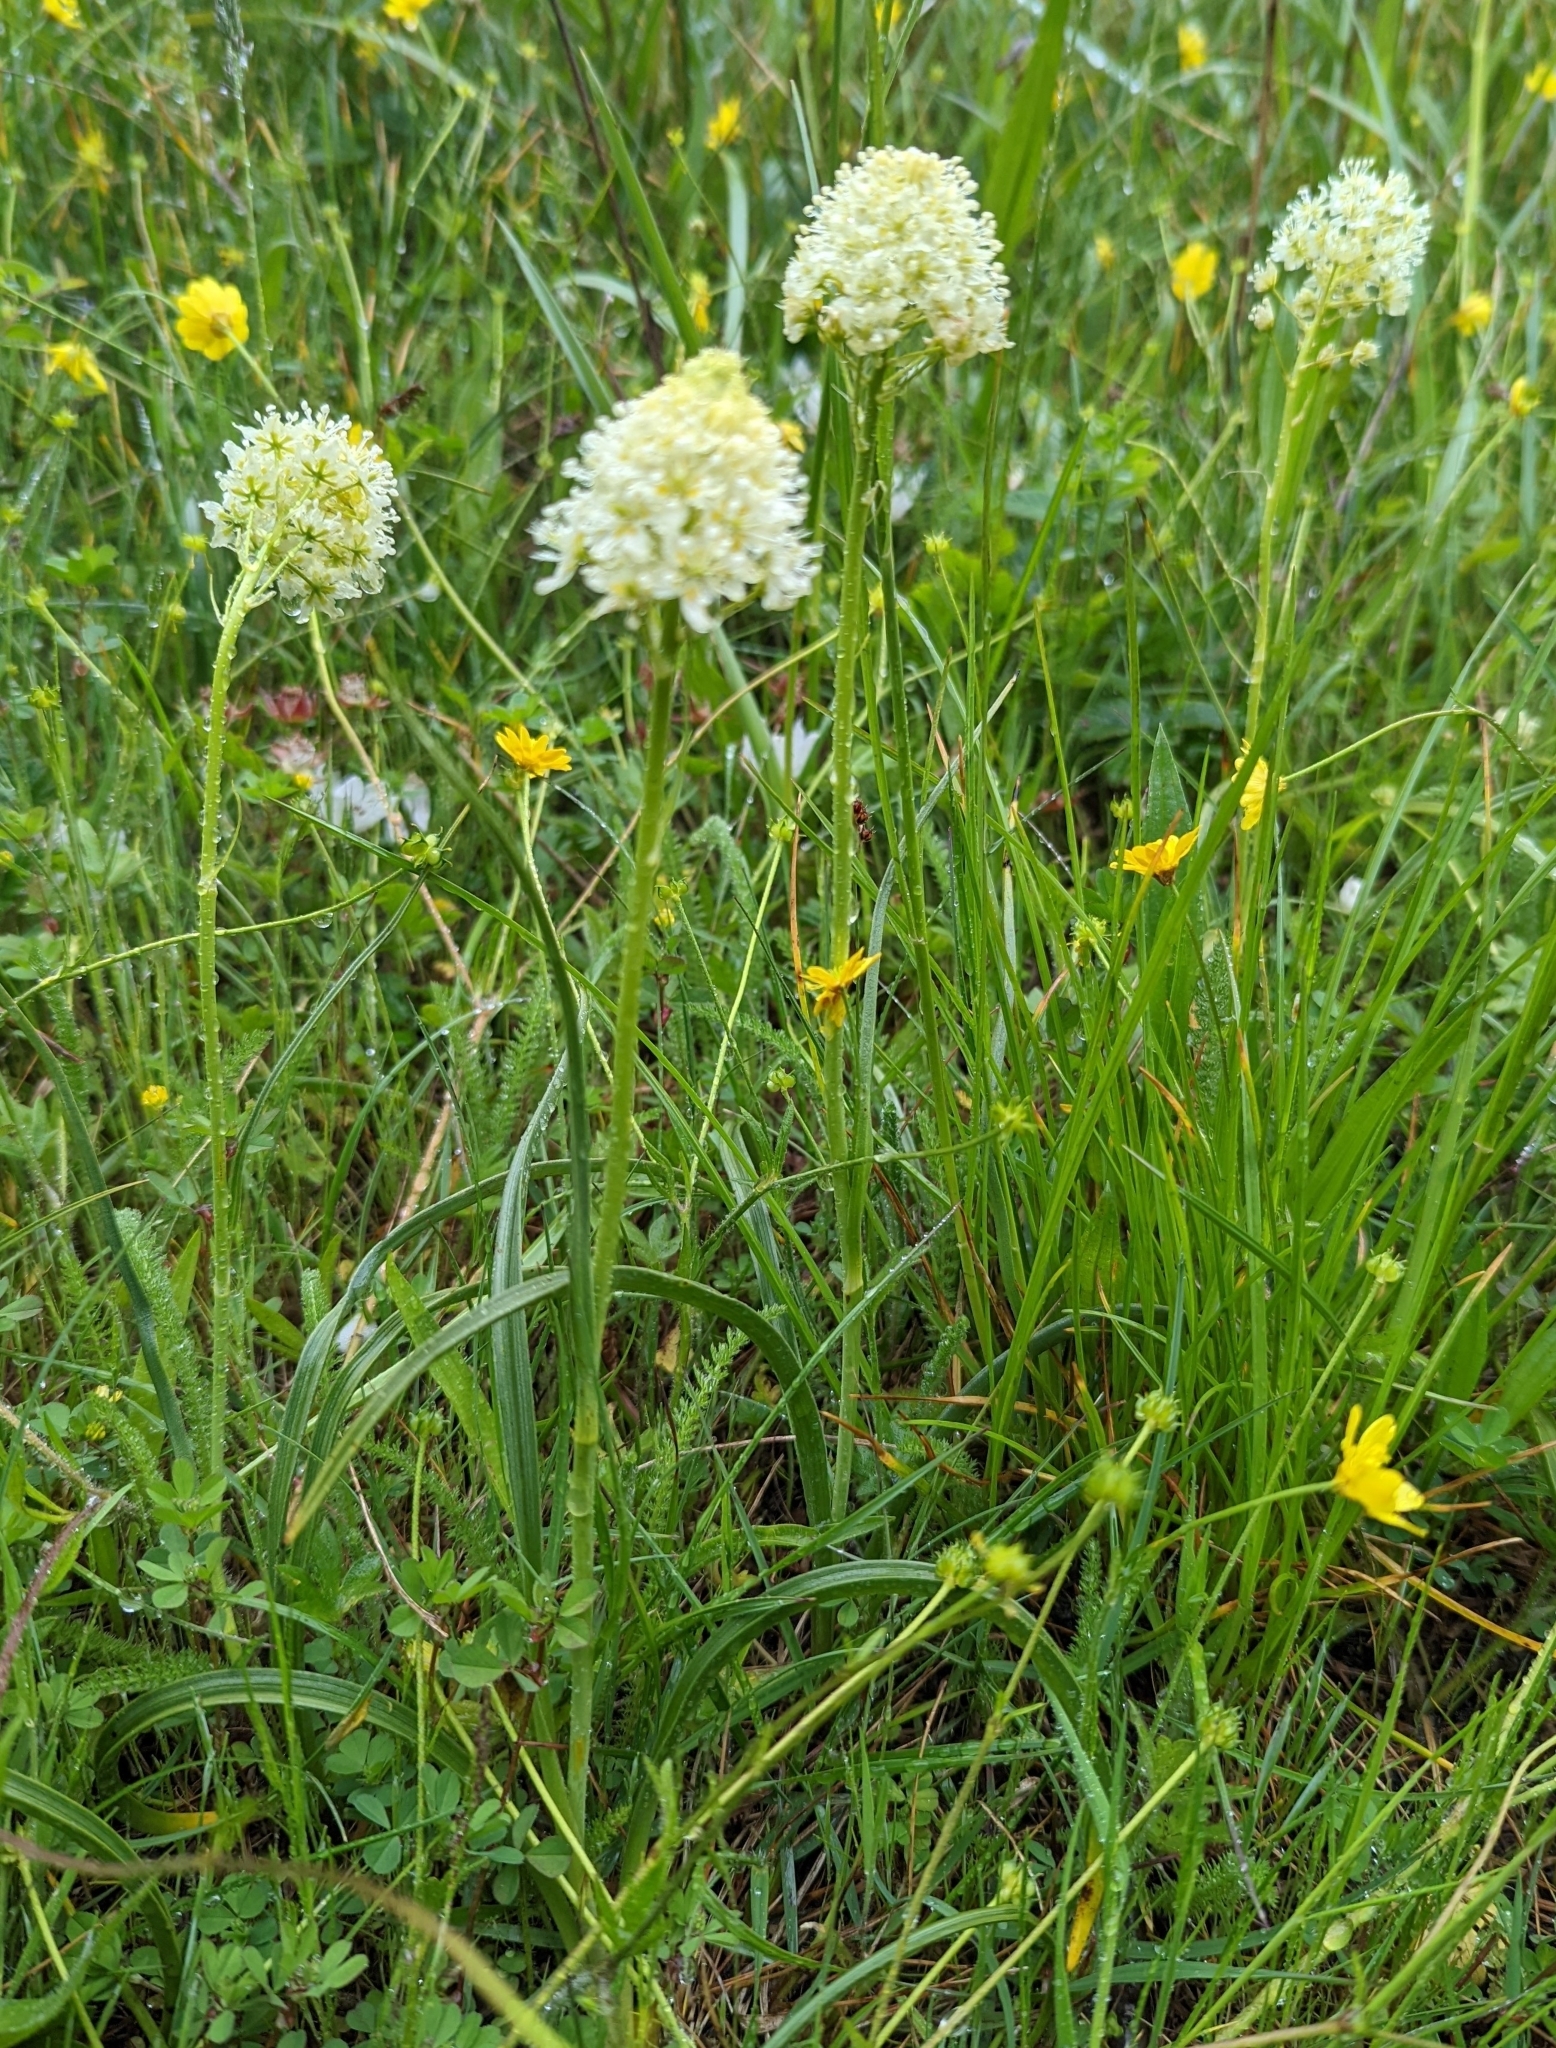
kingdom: Plantae
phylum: Tracheophyta
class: Liliopsida
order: Liliales
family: Melanthiaceae
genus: Toxicoscordion
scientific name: Toxicoscordion venenosum
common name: Meadow death camas
